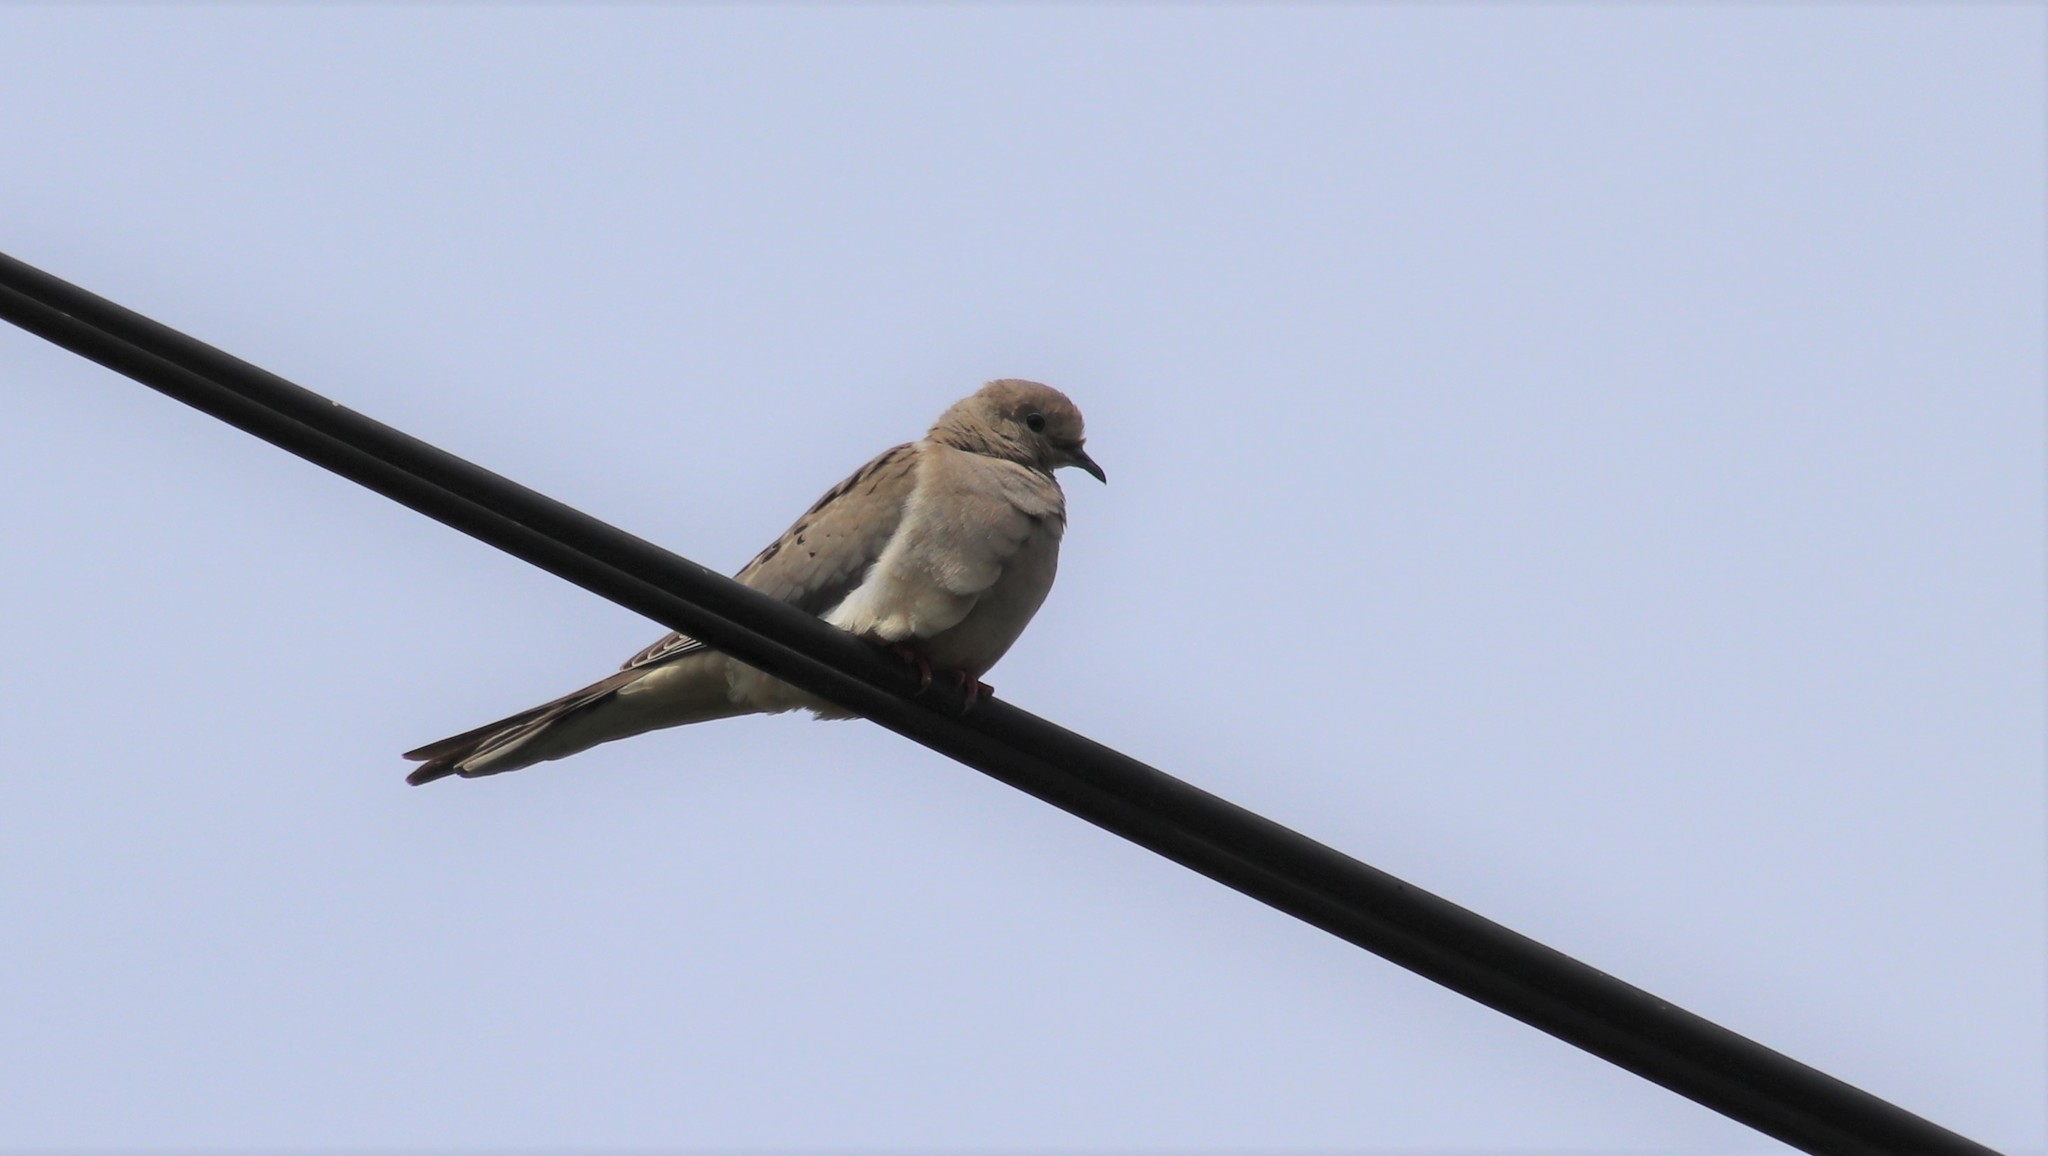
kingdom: Animalia
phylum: Chordata
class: Aves
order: Columbiformes
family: Columbidae
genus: Zenaida
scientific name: Zenaida macroura
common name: Mourning dove
